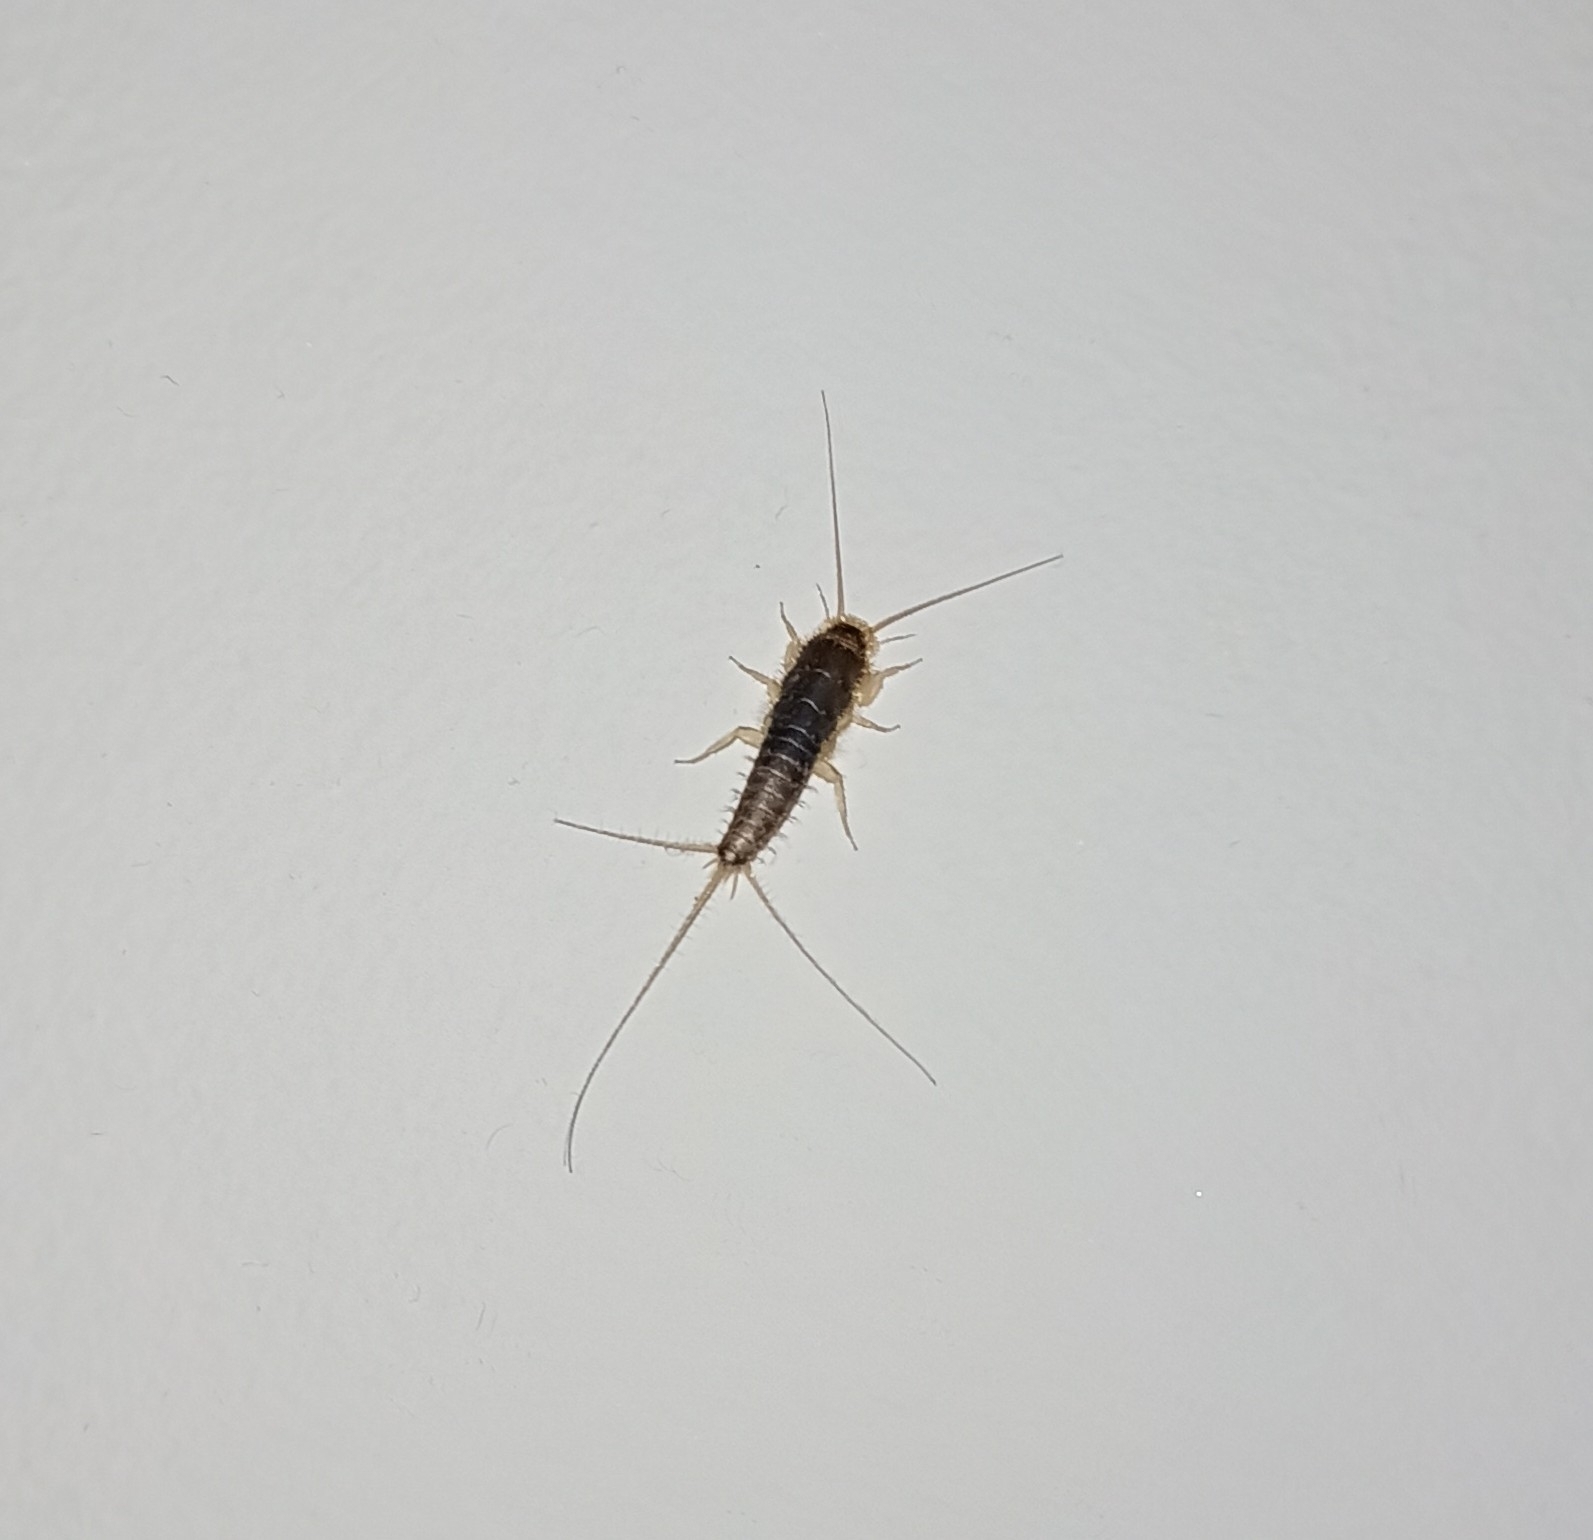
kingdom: Animalia
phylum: Arthropoda
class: Insecta
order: Zygentoma
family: Lepismatidae
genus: Ctenolepisma
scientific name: Ctenolepisma longicaudatum
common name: Silverfish
